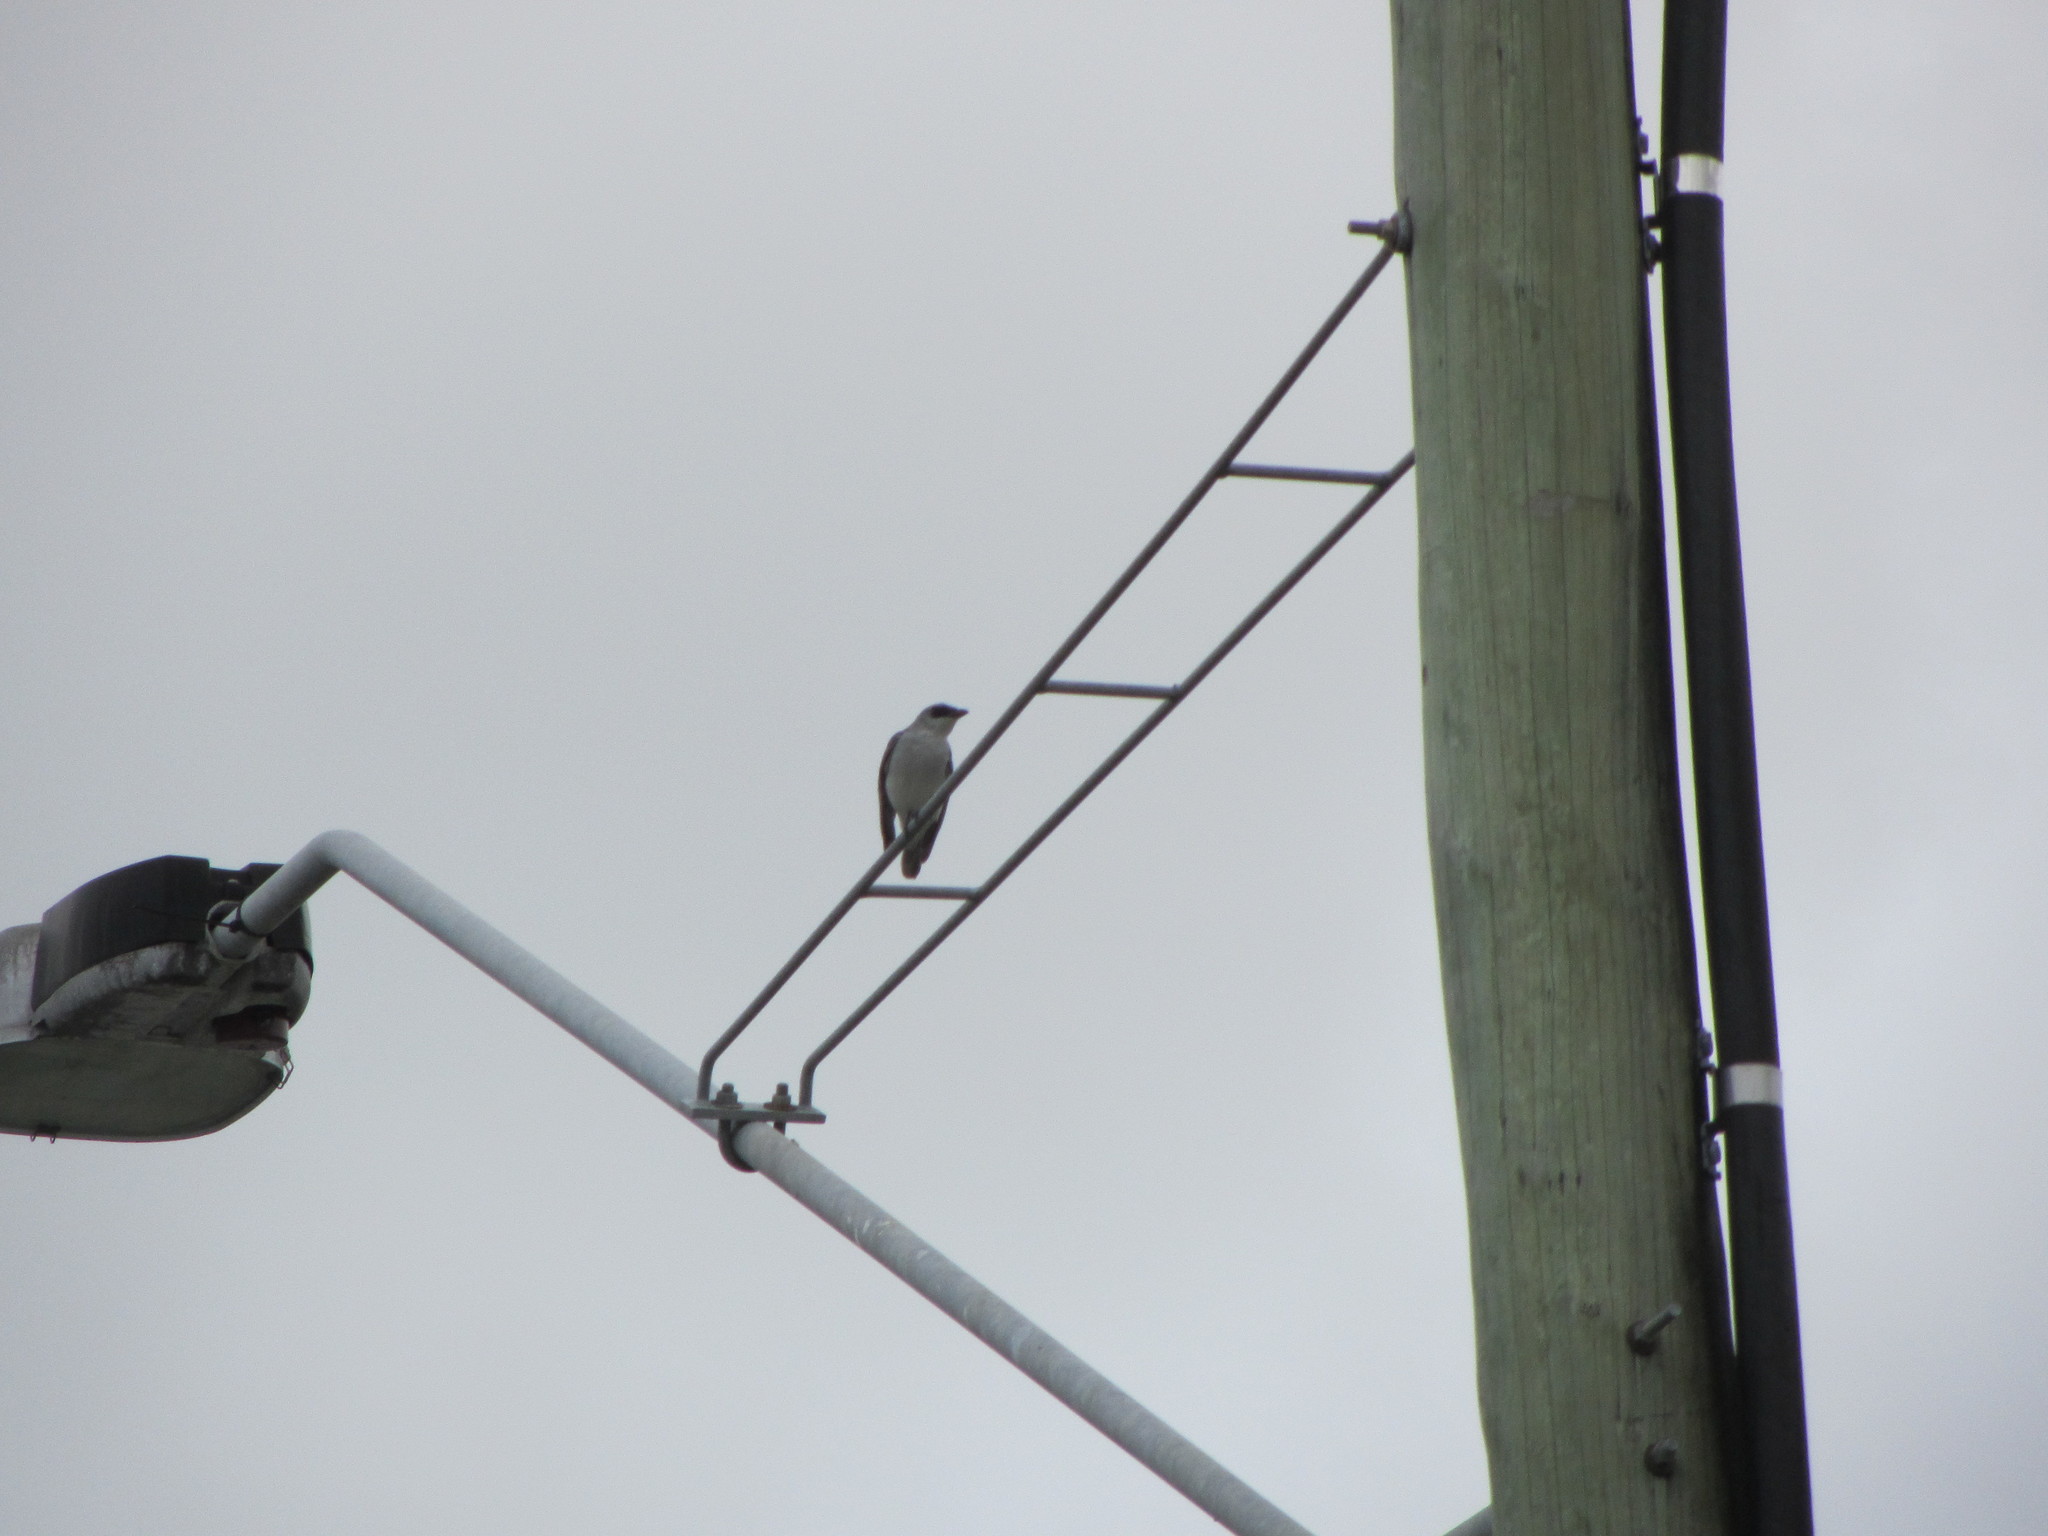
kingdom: Animalia
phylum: Chordata
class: Aves
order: Passeriformes
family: Campephagidae
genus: Coracina
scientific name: Coracina papuensis
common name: White-bellied cuckooshrike
